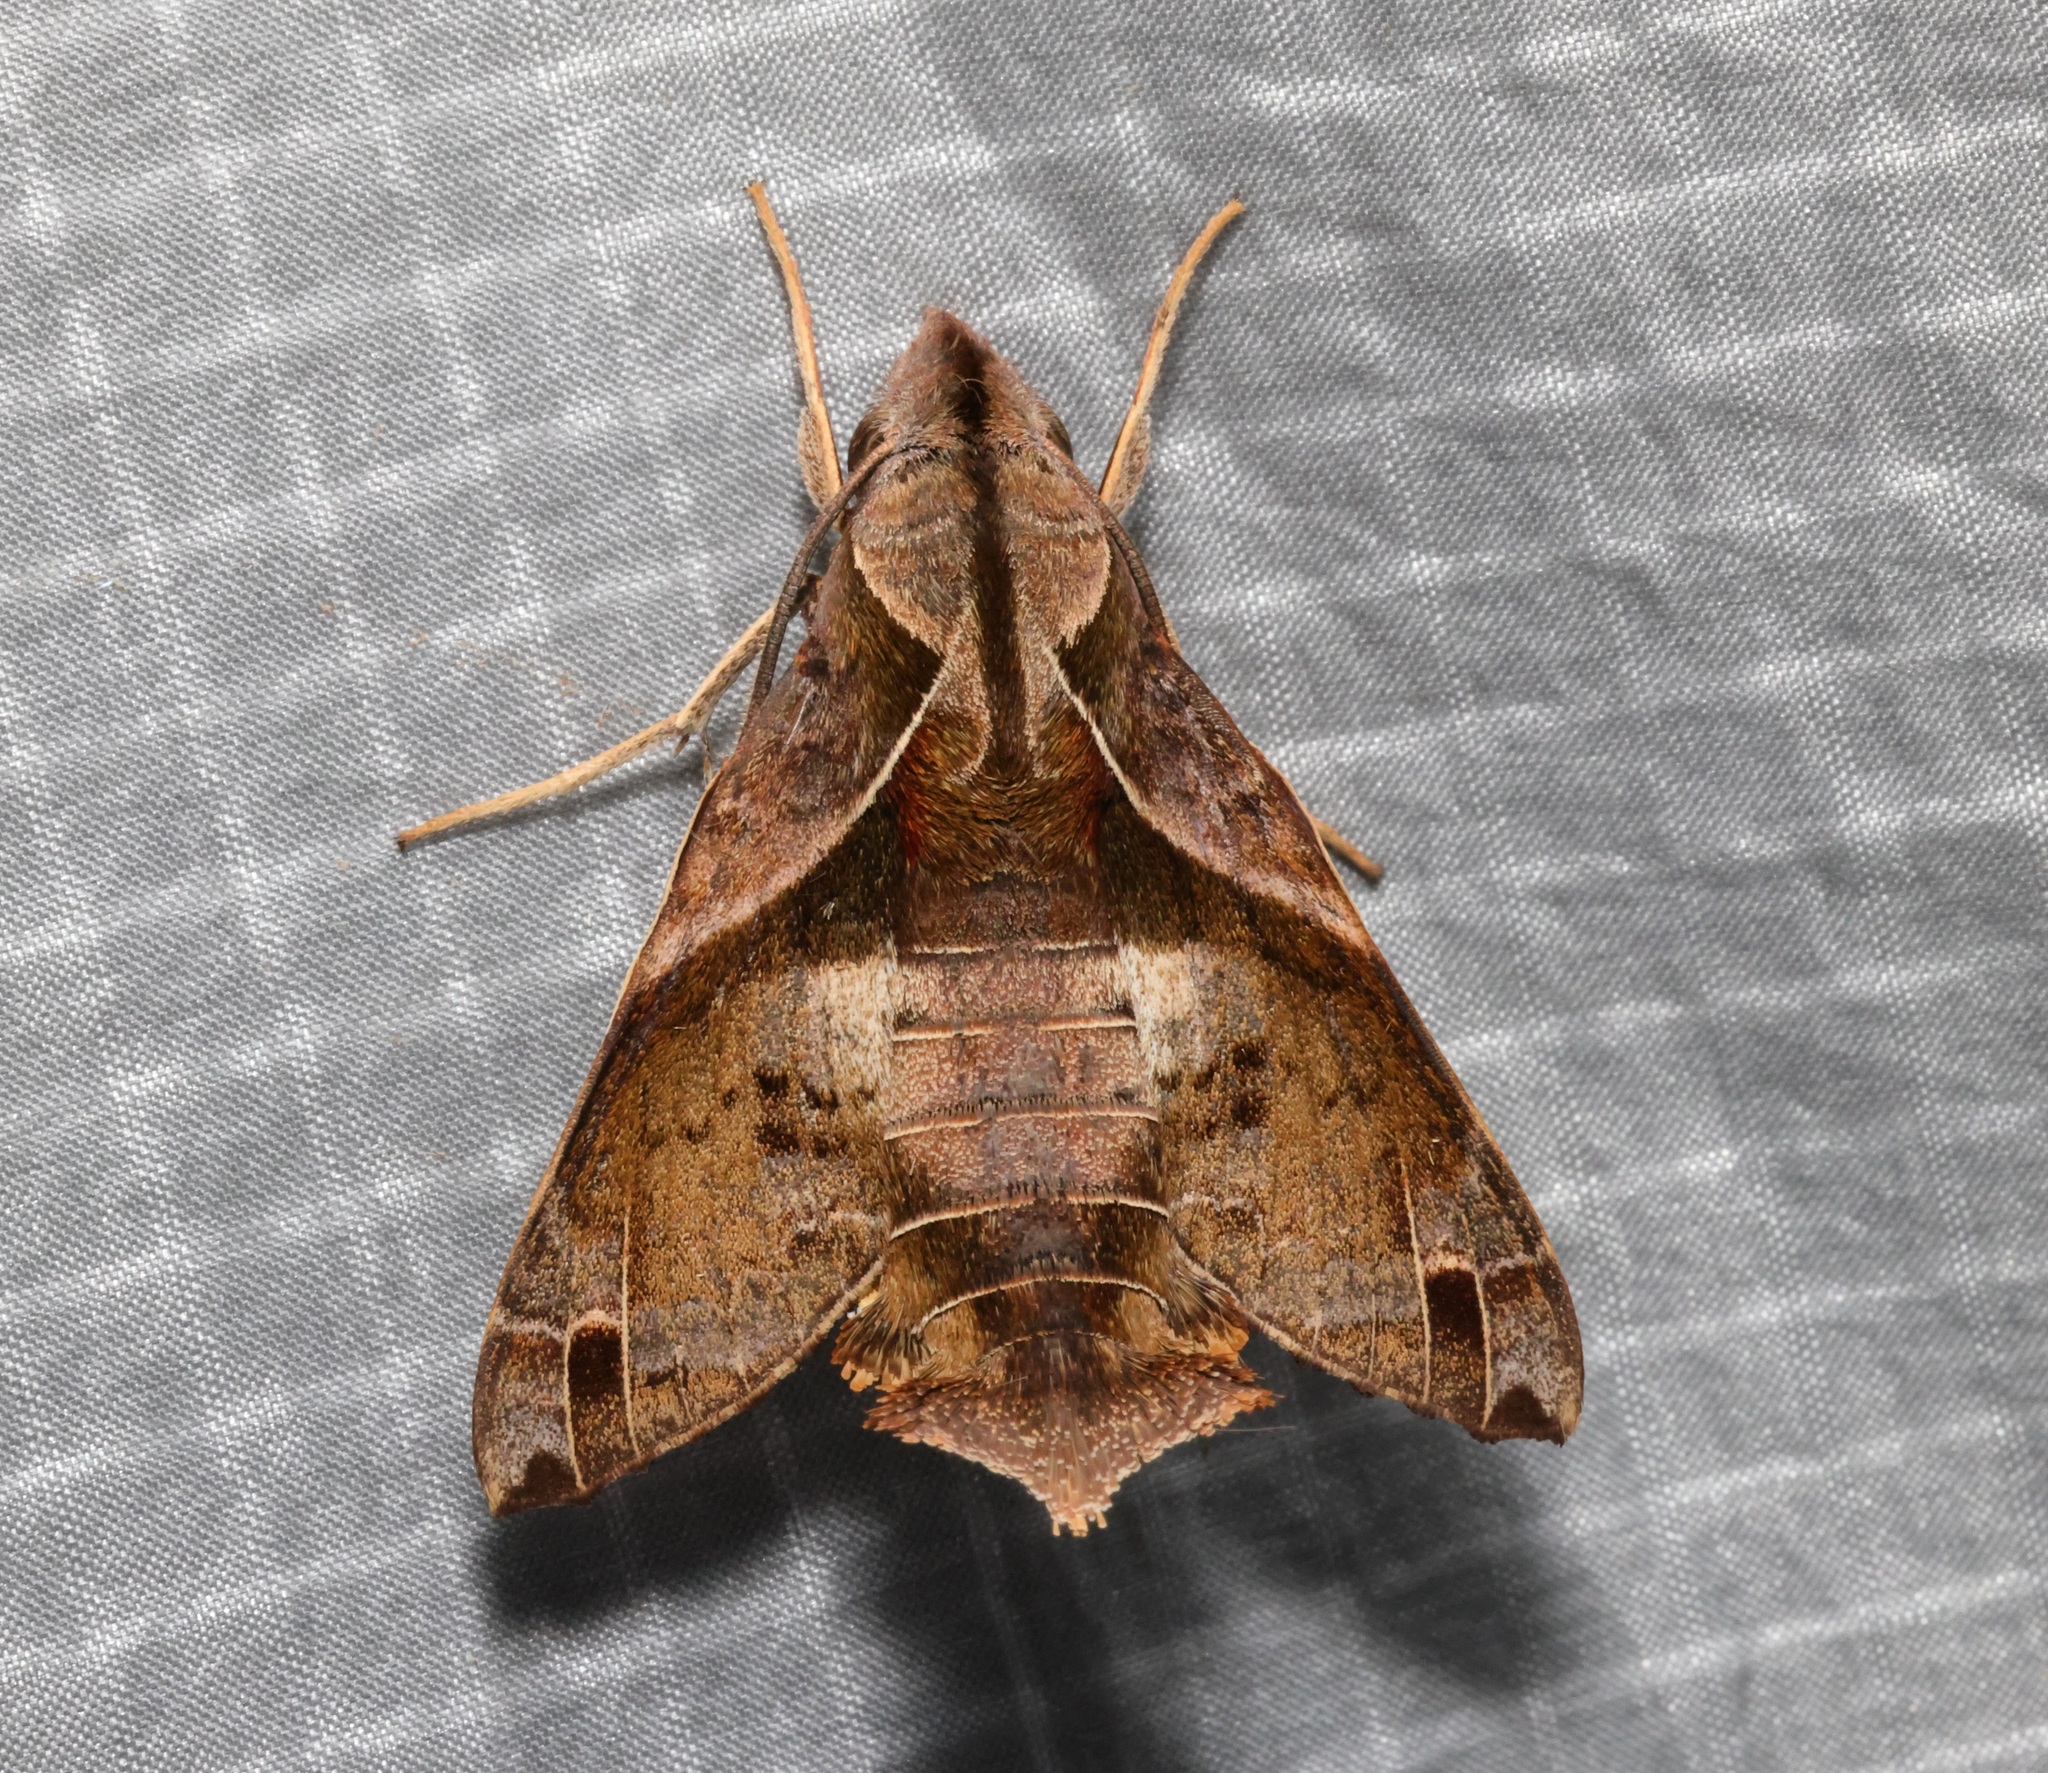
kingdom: Animalia
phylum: Arthropoda
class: Insecta
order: Lepidoptera
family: Sphingidae
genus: Macroglossum
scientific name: Macroglossum fritzei
